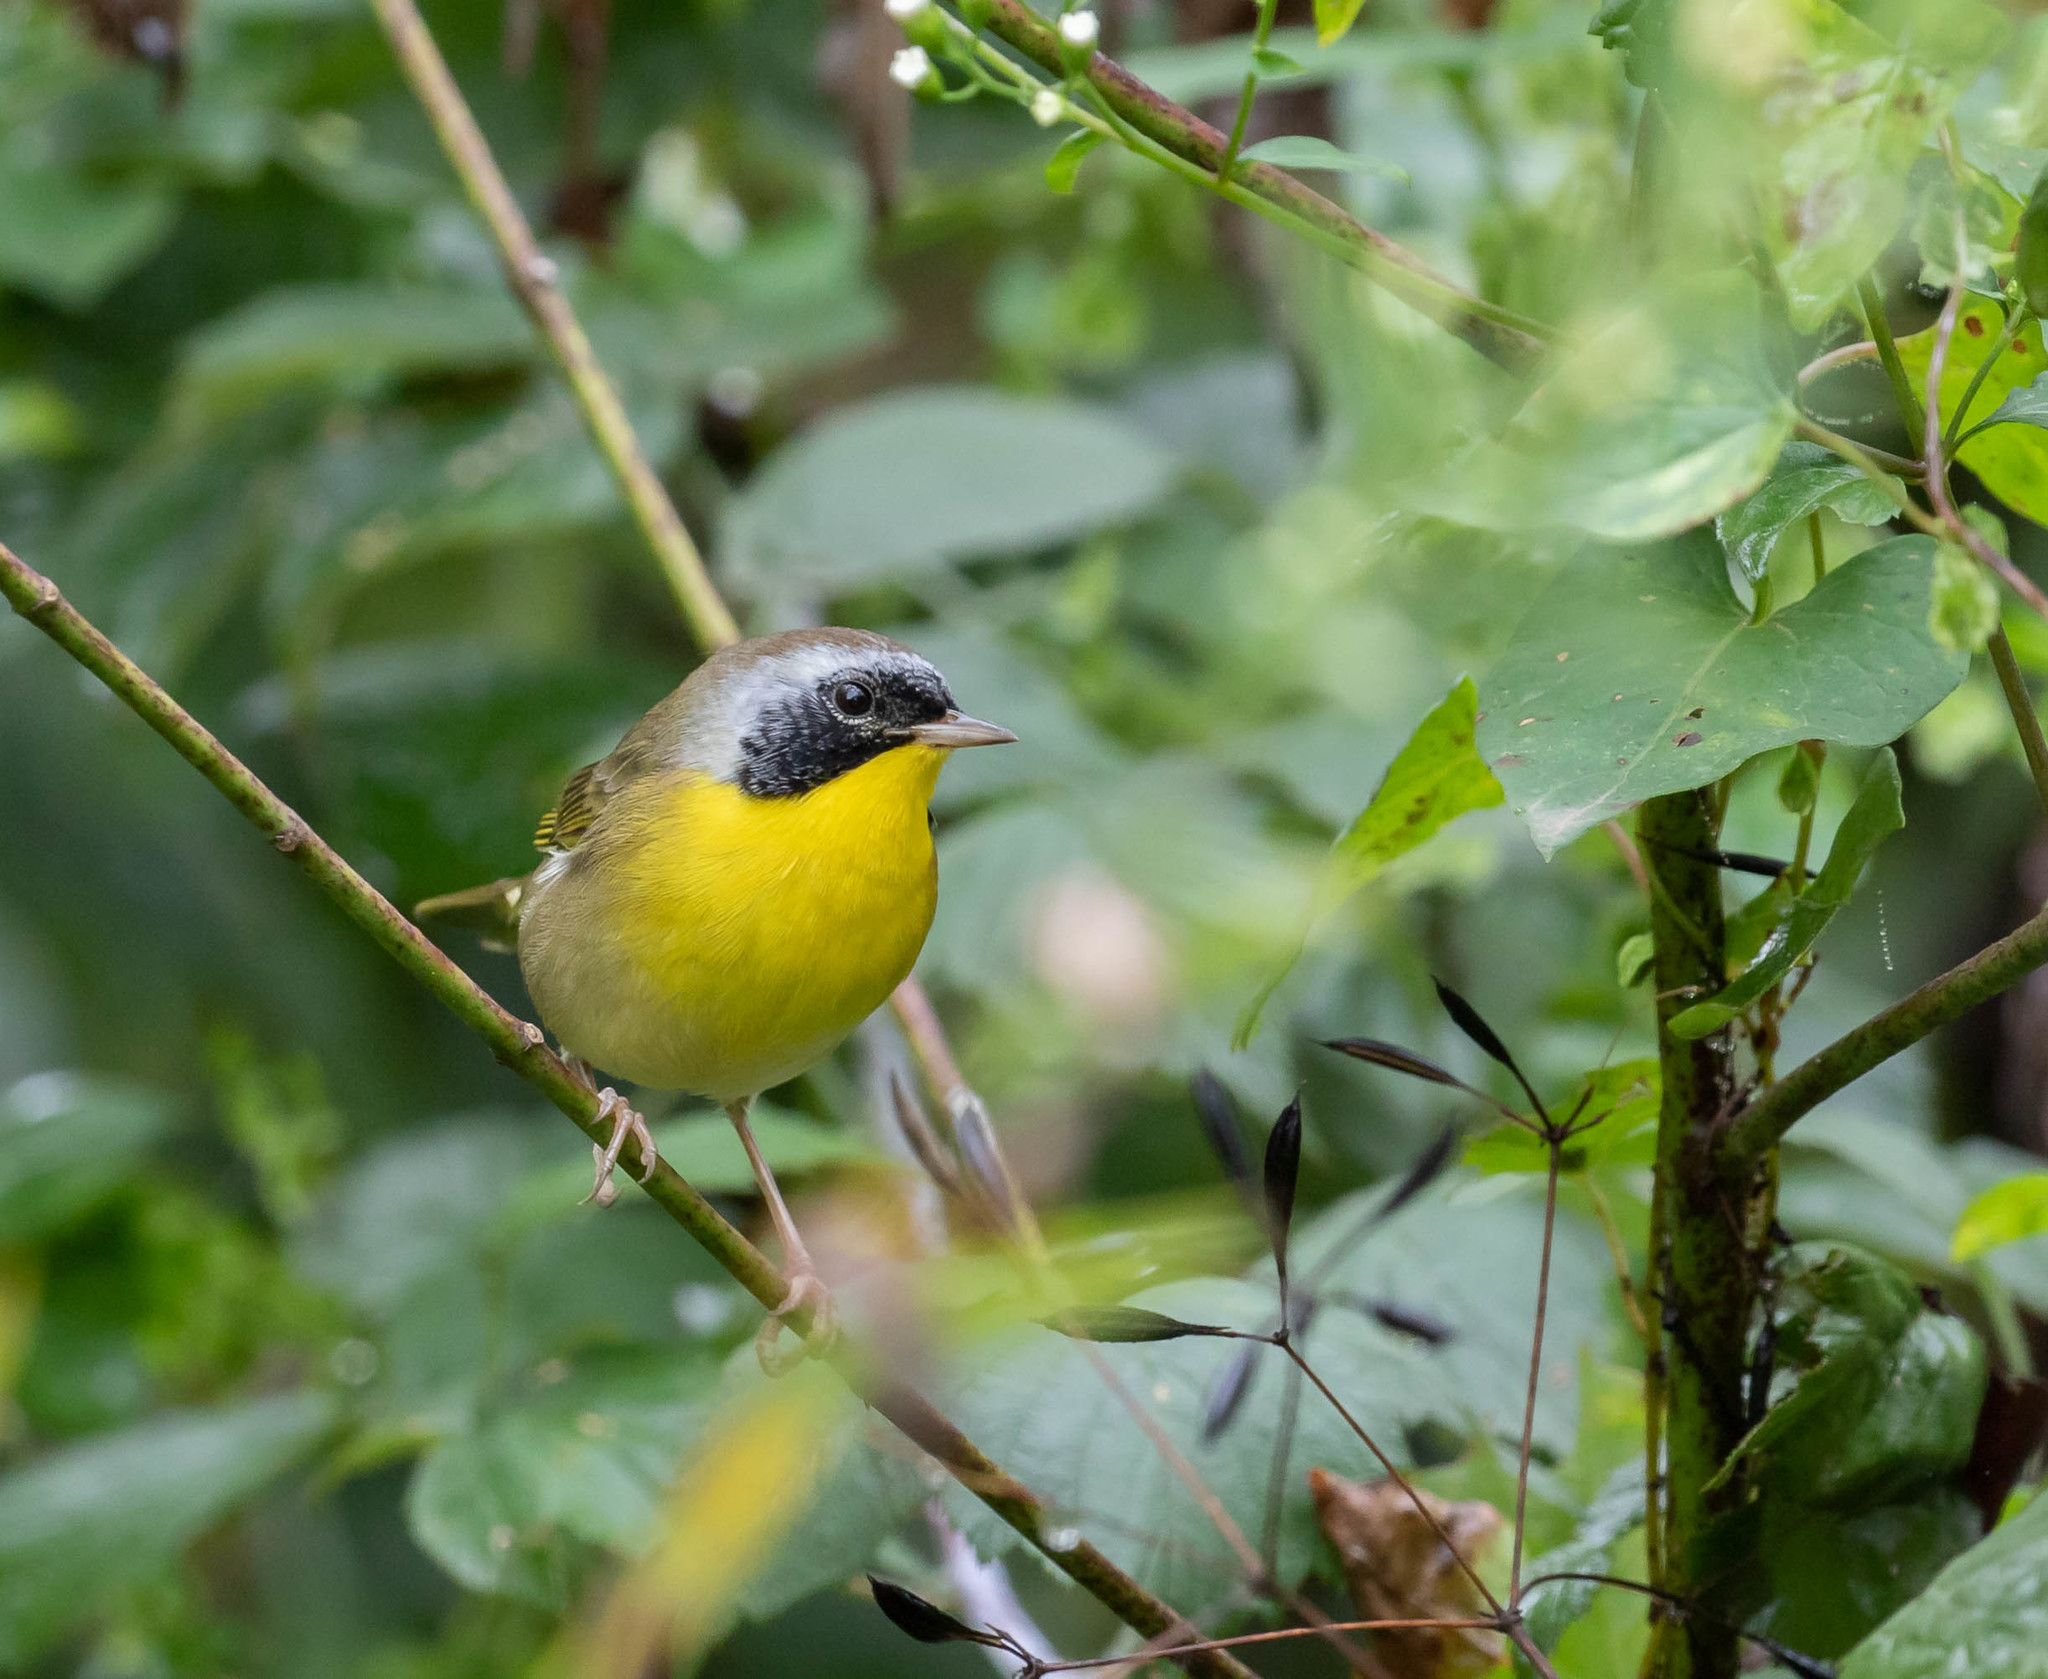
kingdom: Animalia
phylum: Chordata
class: Aves
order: Passeriformes
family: Parulidae
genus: Geothlypis
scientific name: Geothlypis trichas
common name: Common yellowthroat
